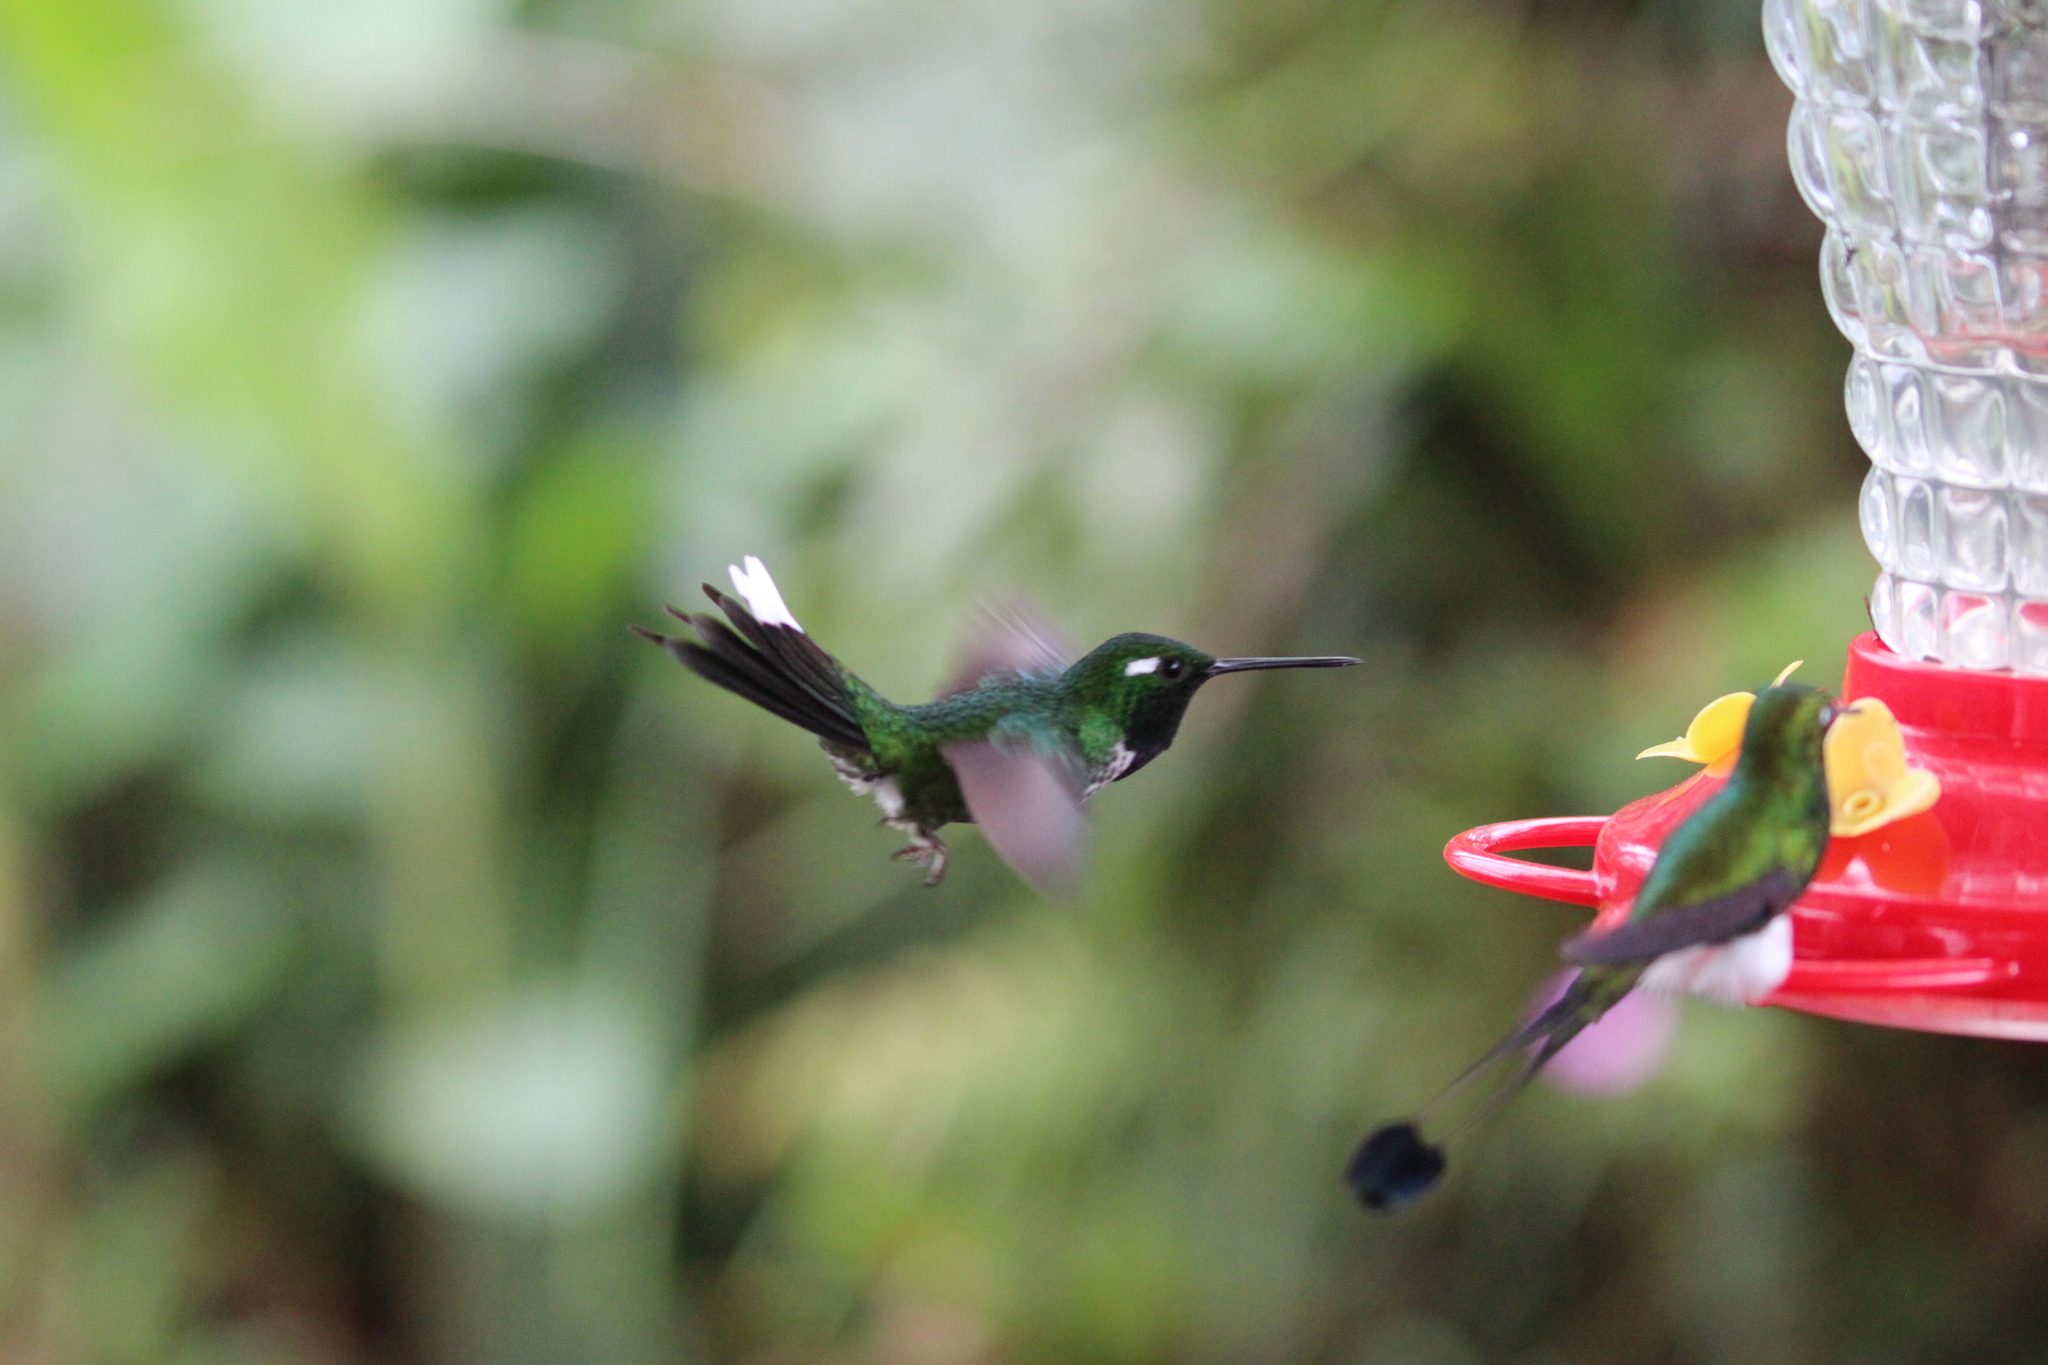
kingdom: Animalia
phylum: Chordata
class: Aves
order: Apodiformes
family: Trochilidae
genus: Urosticte
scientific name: Urosticte benjamini
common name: Purple-bibbed whitetip
